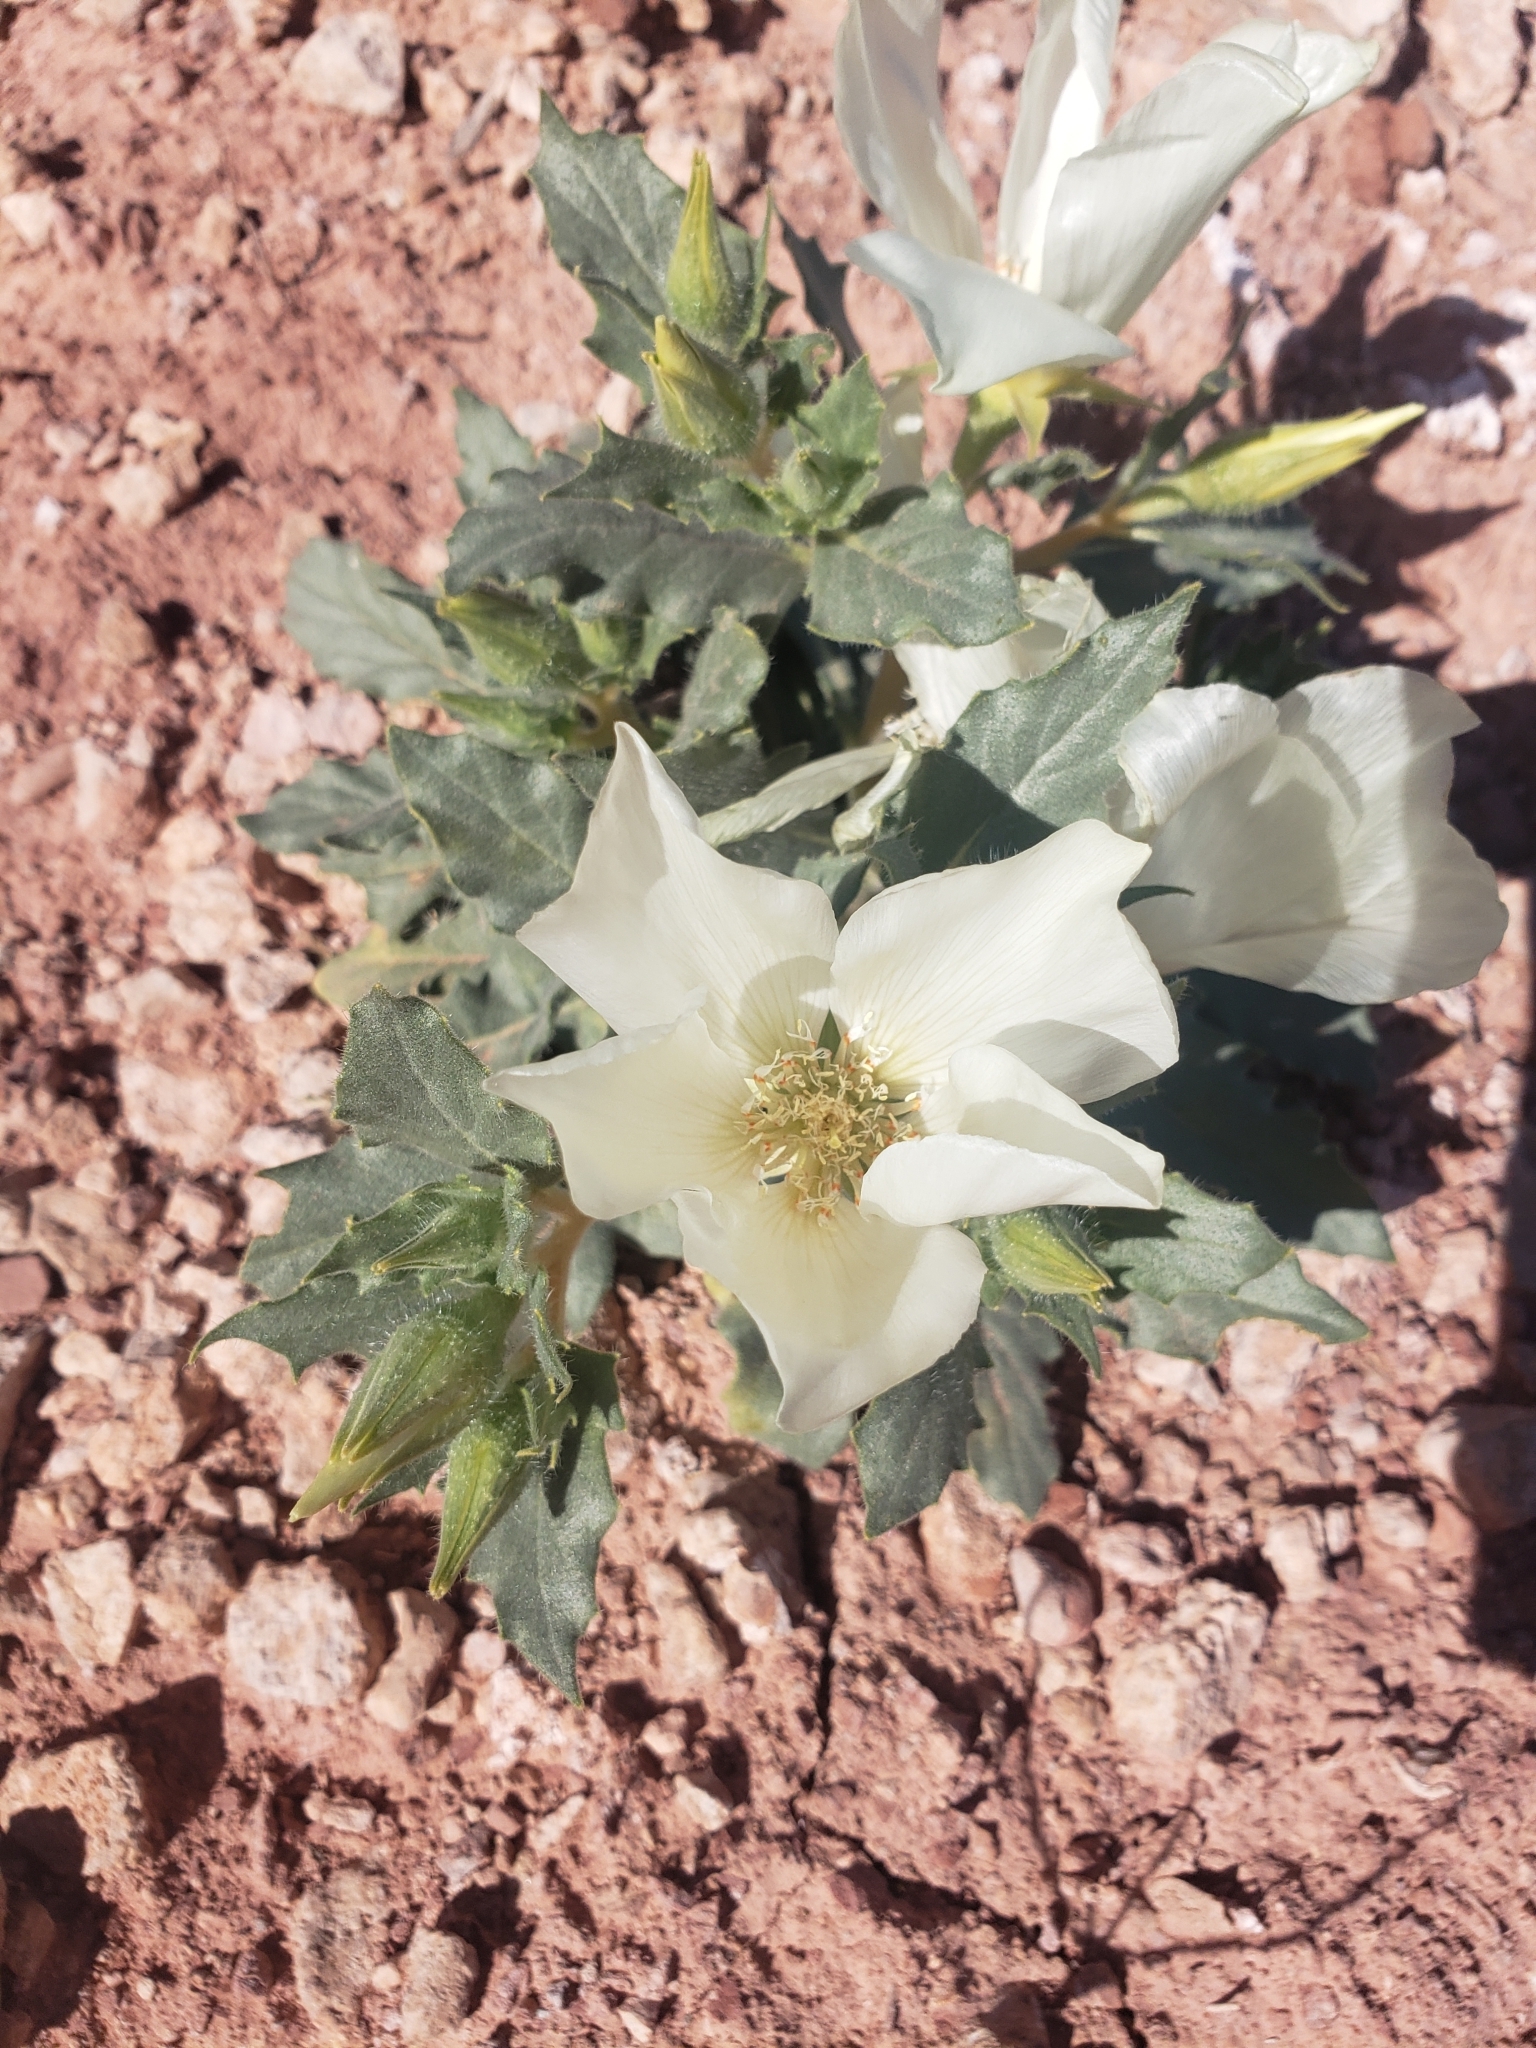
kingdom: Plantae
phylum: Tracheophyta
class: Magnoliopsida
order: Cornales
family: Loasaceae
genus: Mentzelia
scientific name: Mentzelia tricuspis
